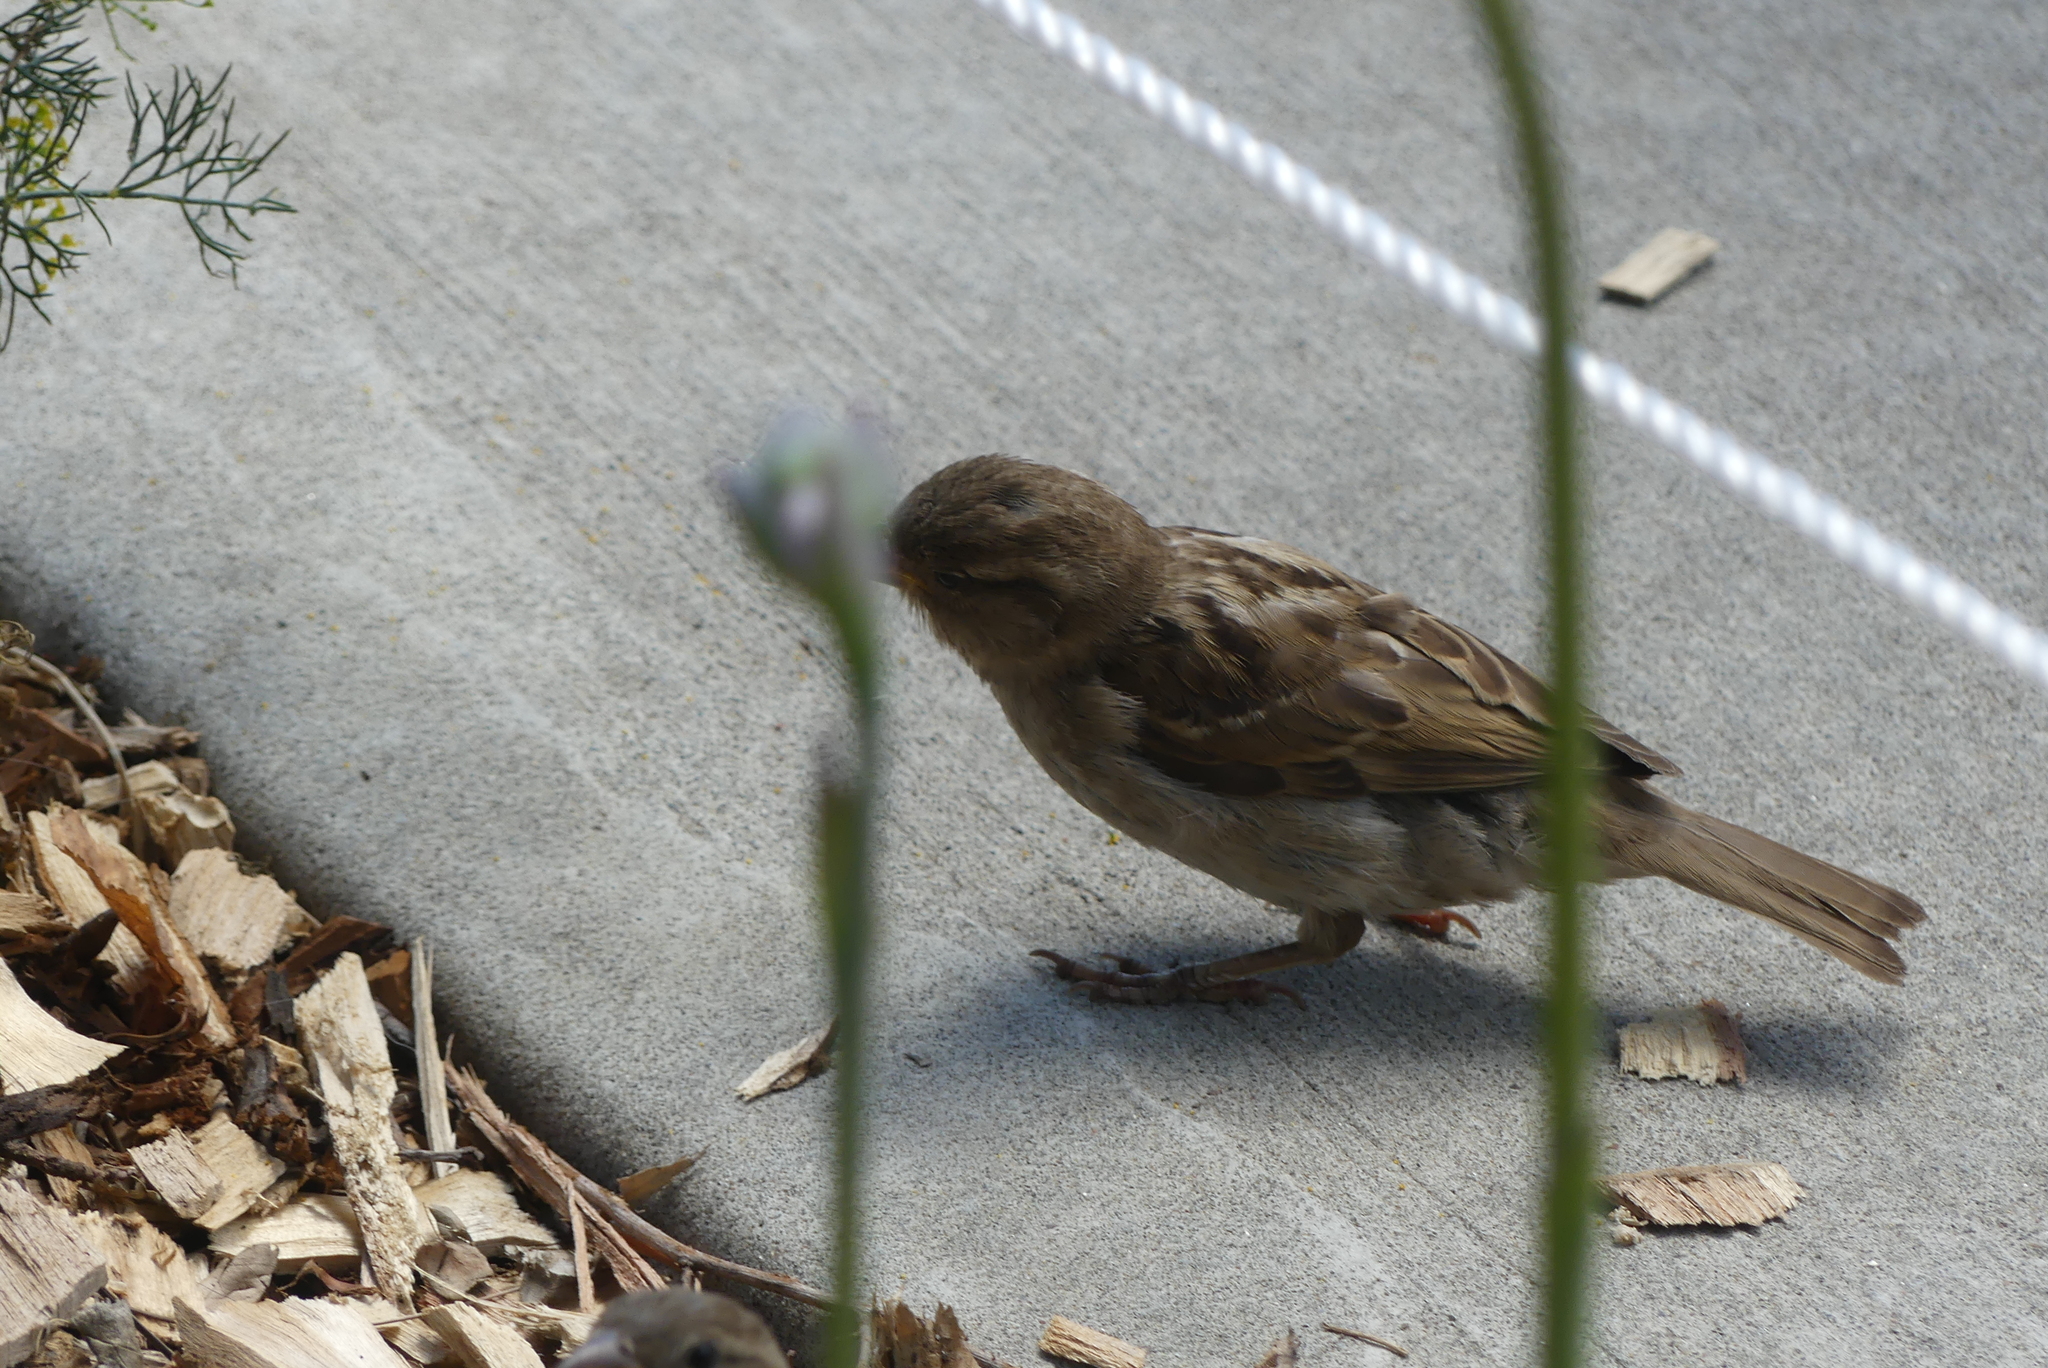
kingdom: Animalia
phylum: Chordata
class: Aves
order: Passeriformes
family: Passeridae
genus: Passer
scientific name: Passer domesticus
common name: House sparrow
